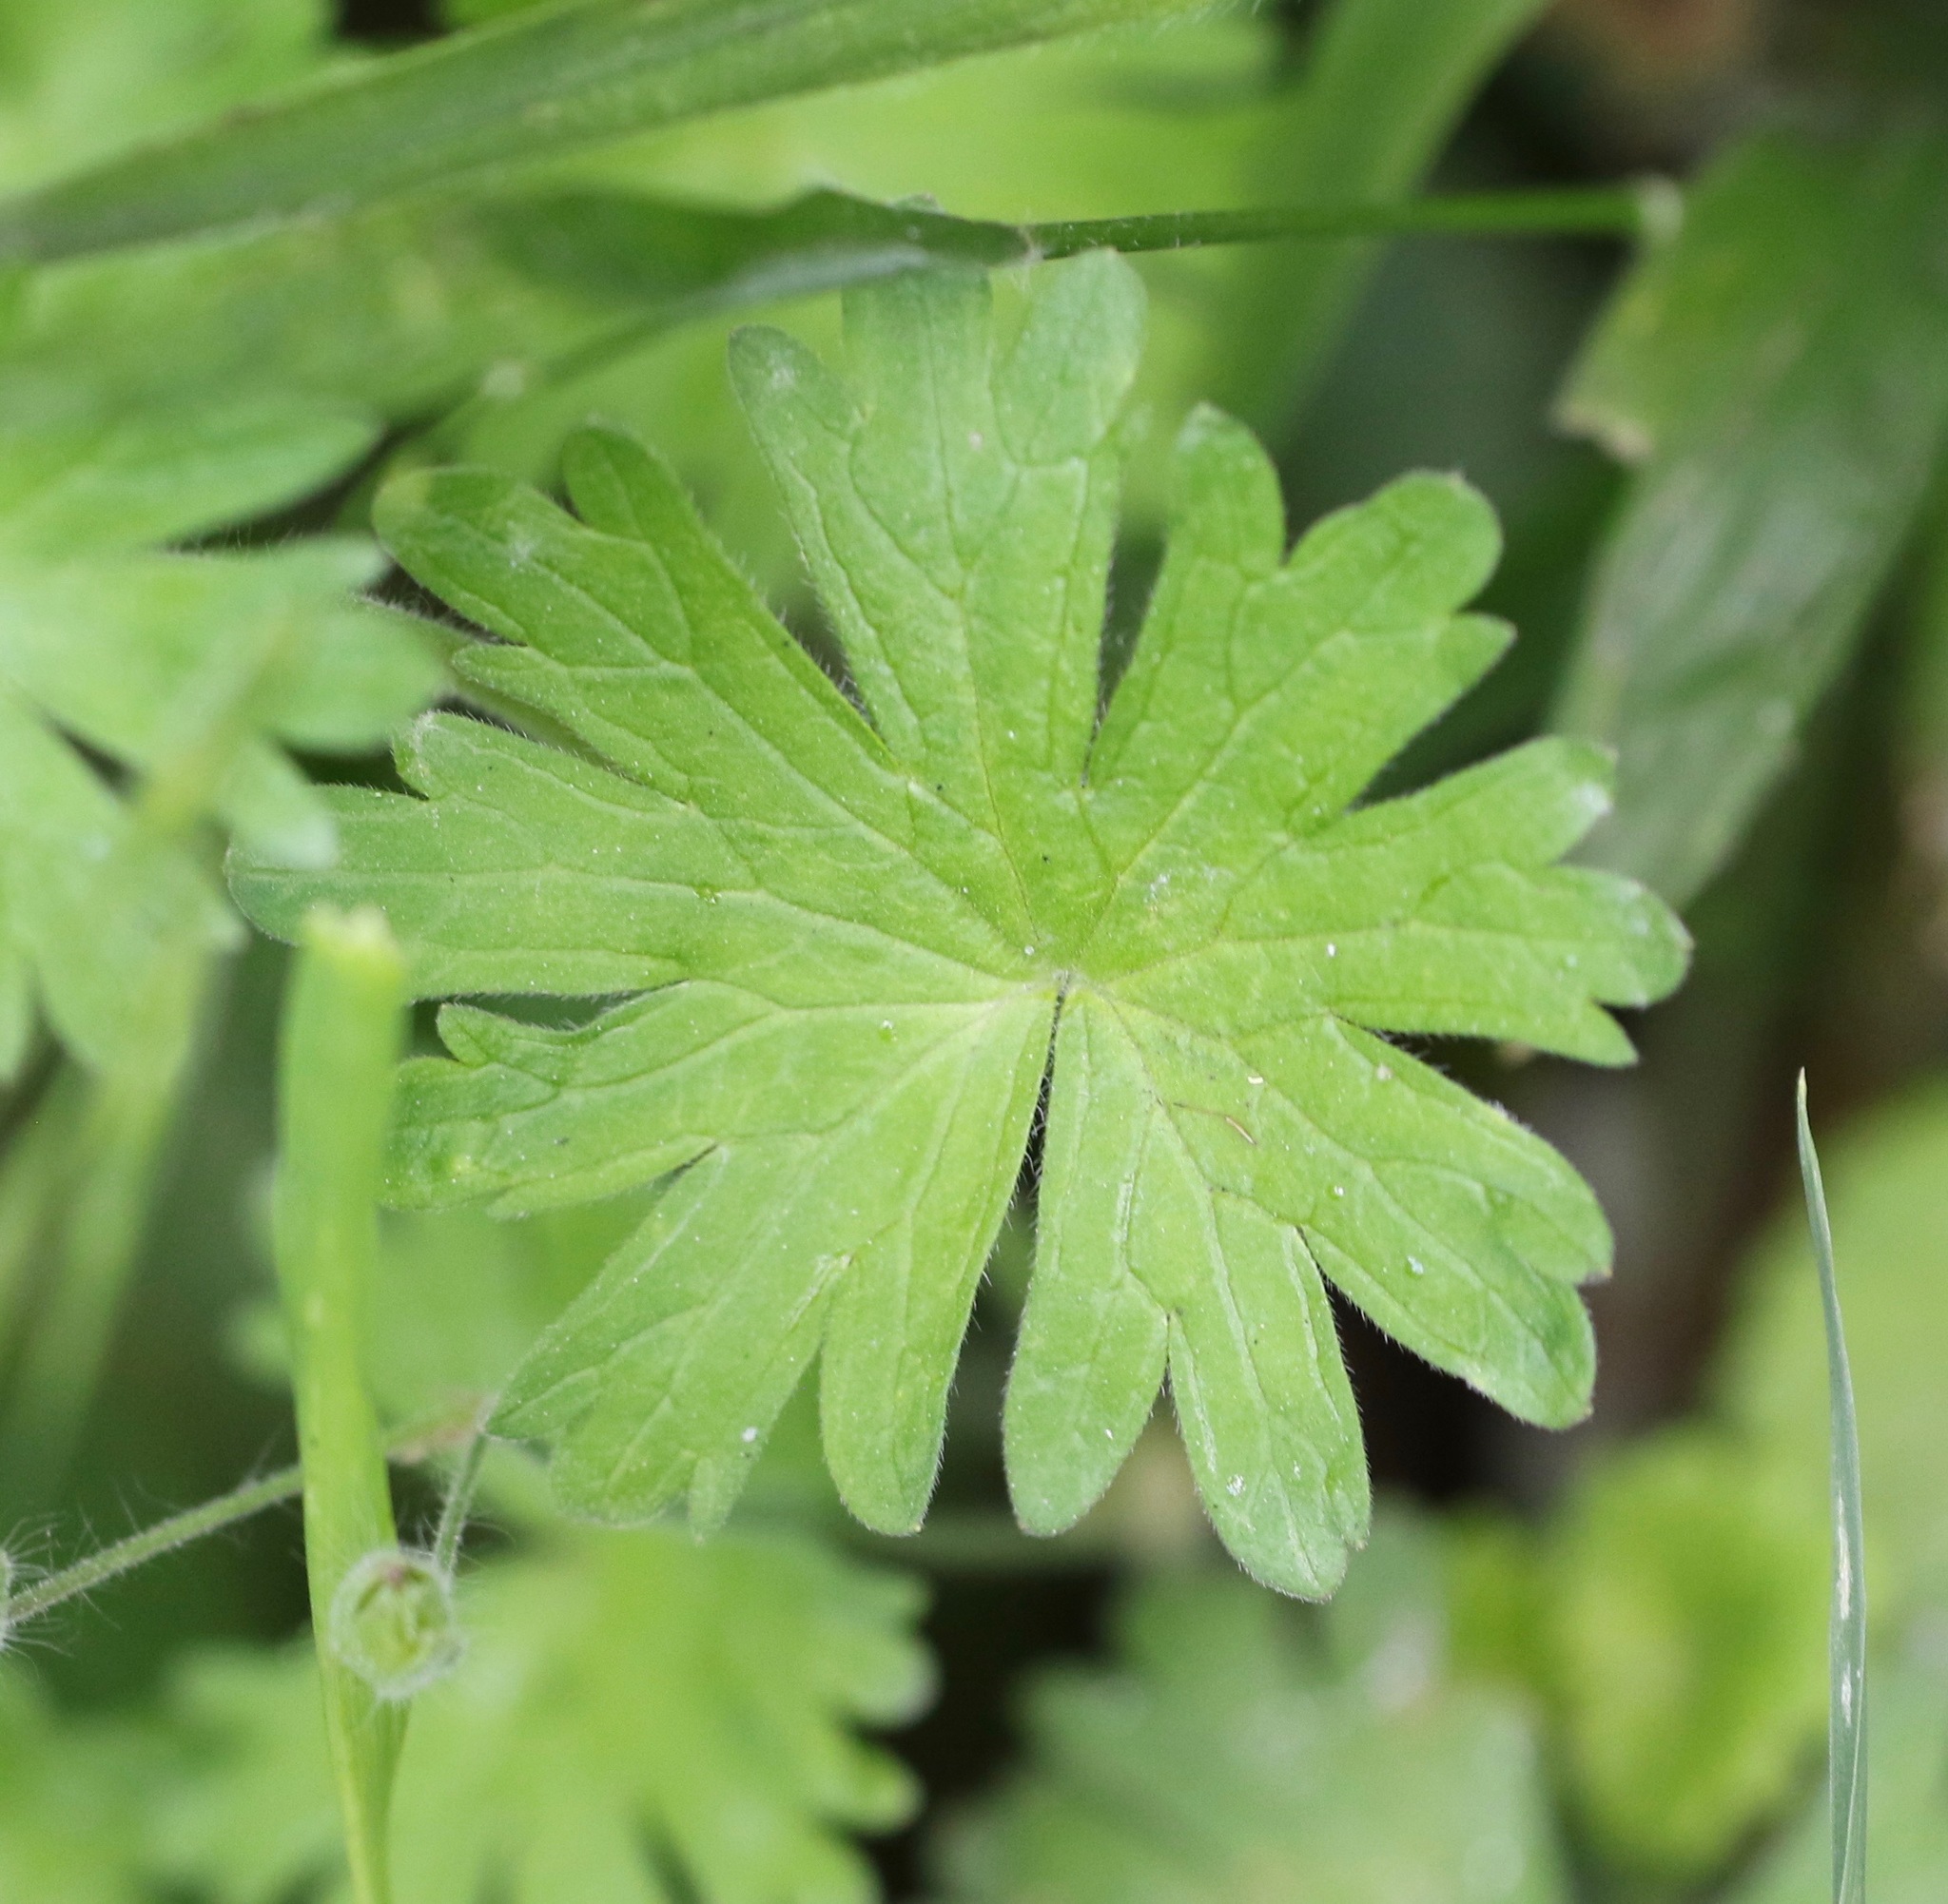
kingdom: Plantae
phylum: Tracheophyta
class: Magnoliopsida
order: Geraniales
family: Geraniaceae
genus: Geranium
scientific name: Geranium molle
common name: Dove's-foot crane's-bill
